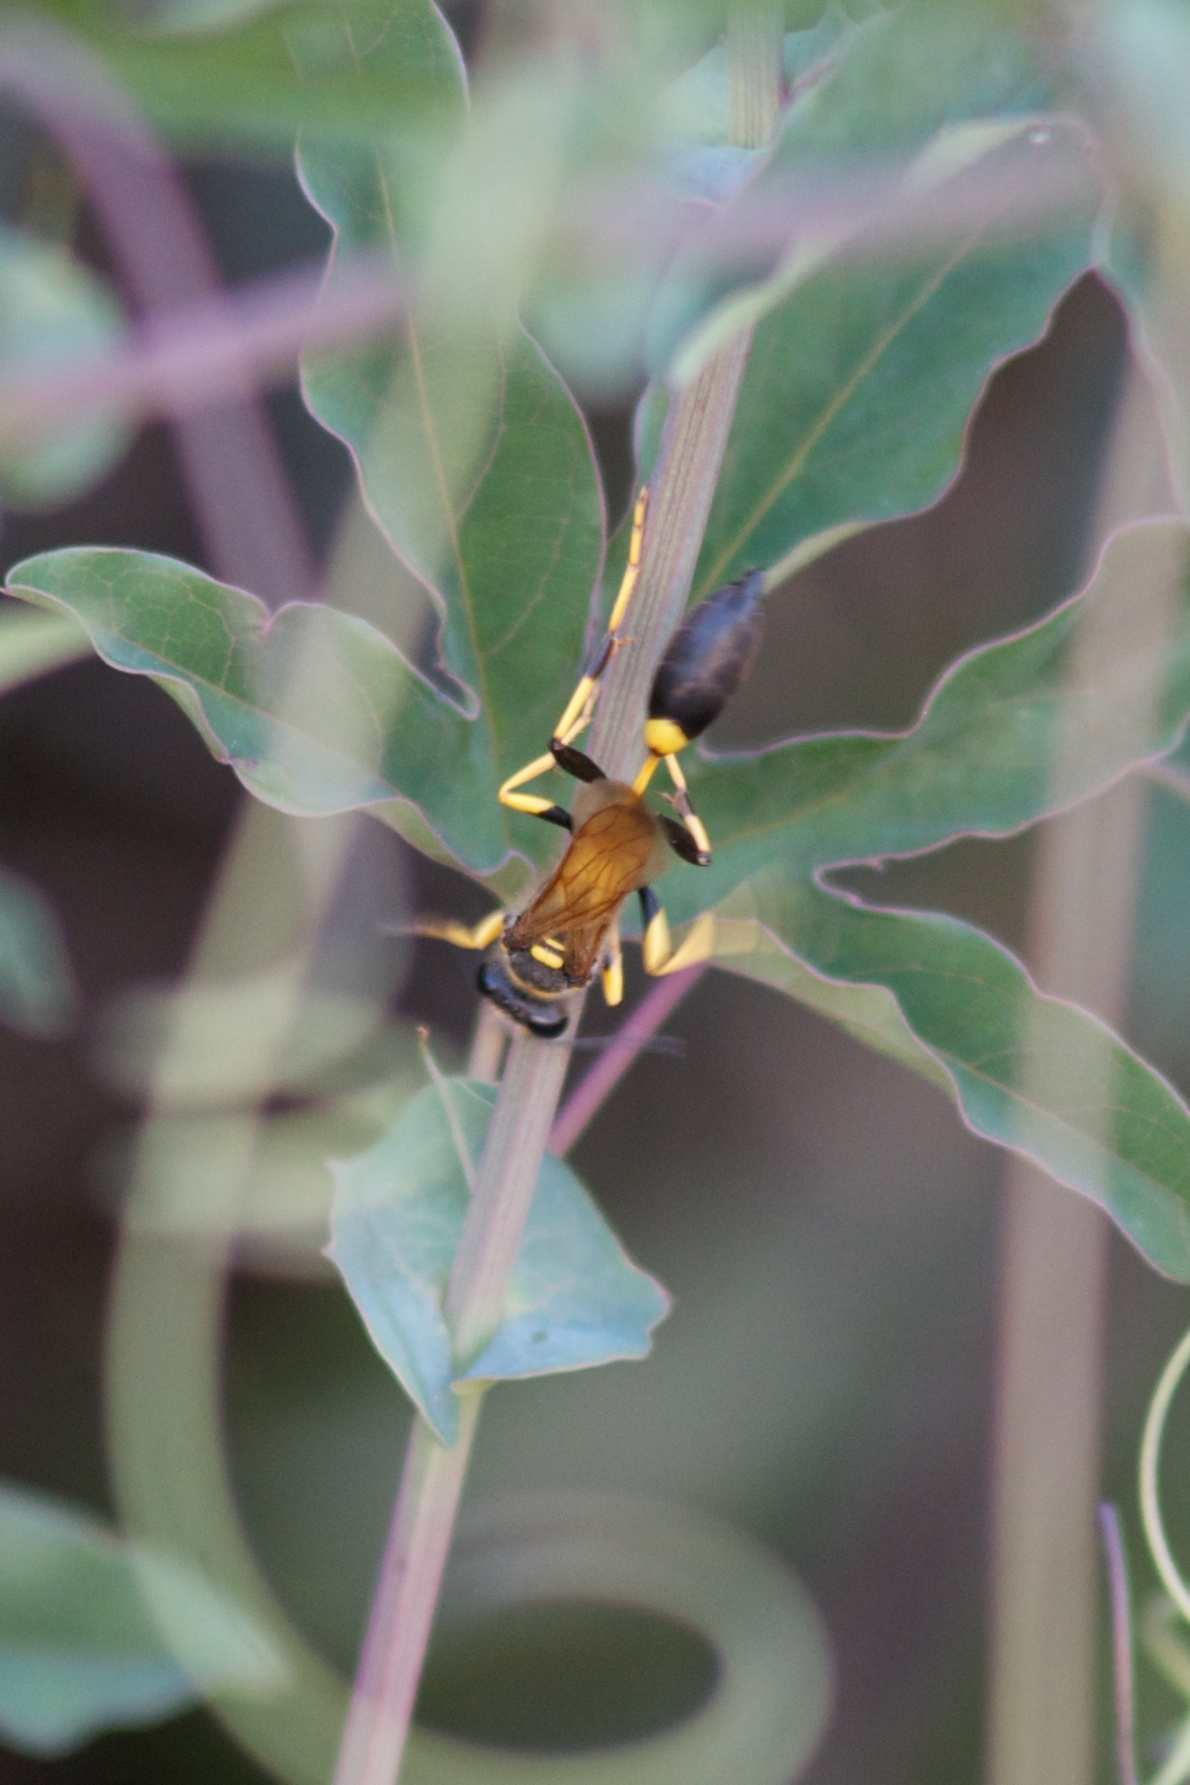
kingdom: Animalia
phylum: Arthropoda
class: Insecta
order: Hymenoptera
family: Sphecidae
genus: Sceliphron
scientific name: Sceliphron caementarium
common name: Mud dauber
